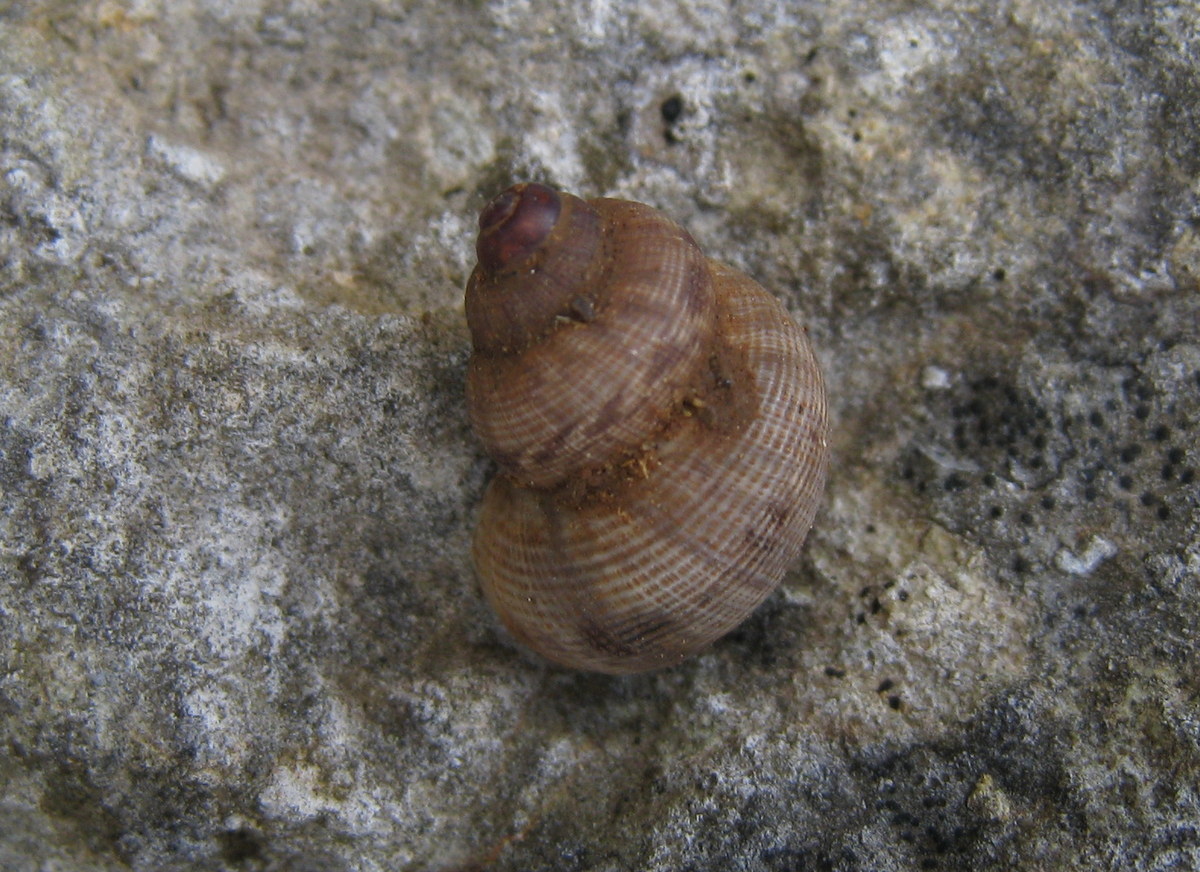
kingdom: Animalia
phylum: Mollusca
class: Gastropoda
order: Littorinimorpha
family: Pomatiidae
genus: Pomatias
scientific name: Pomatias elegans
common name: Red-mouthed snail
